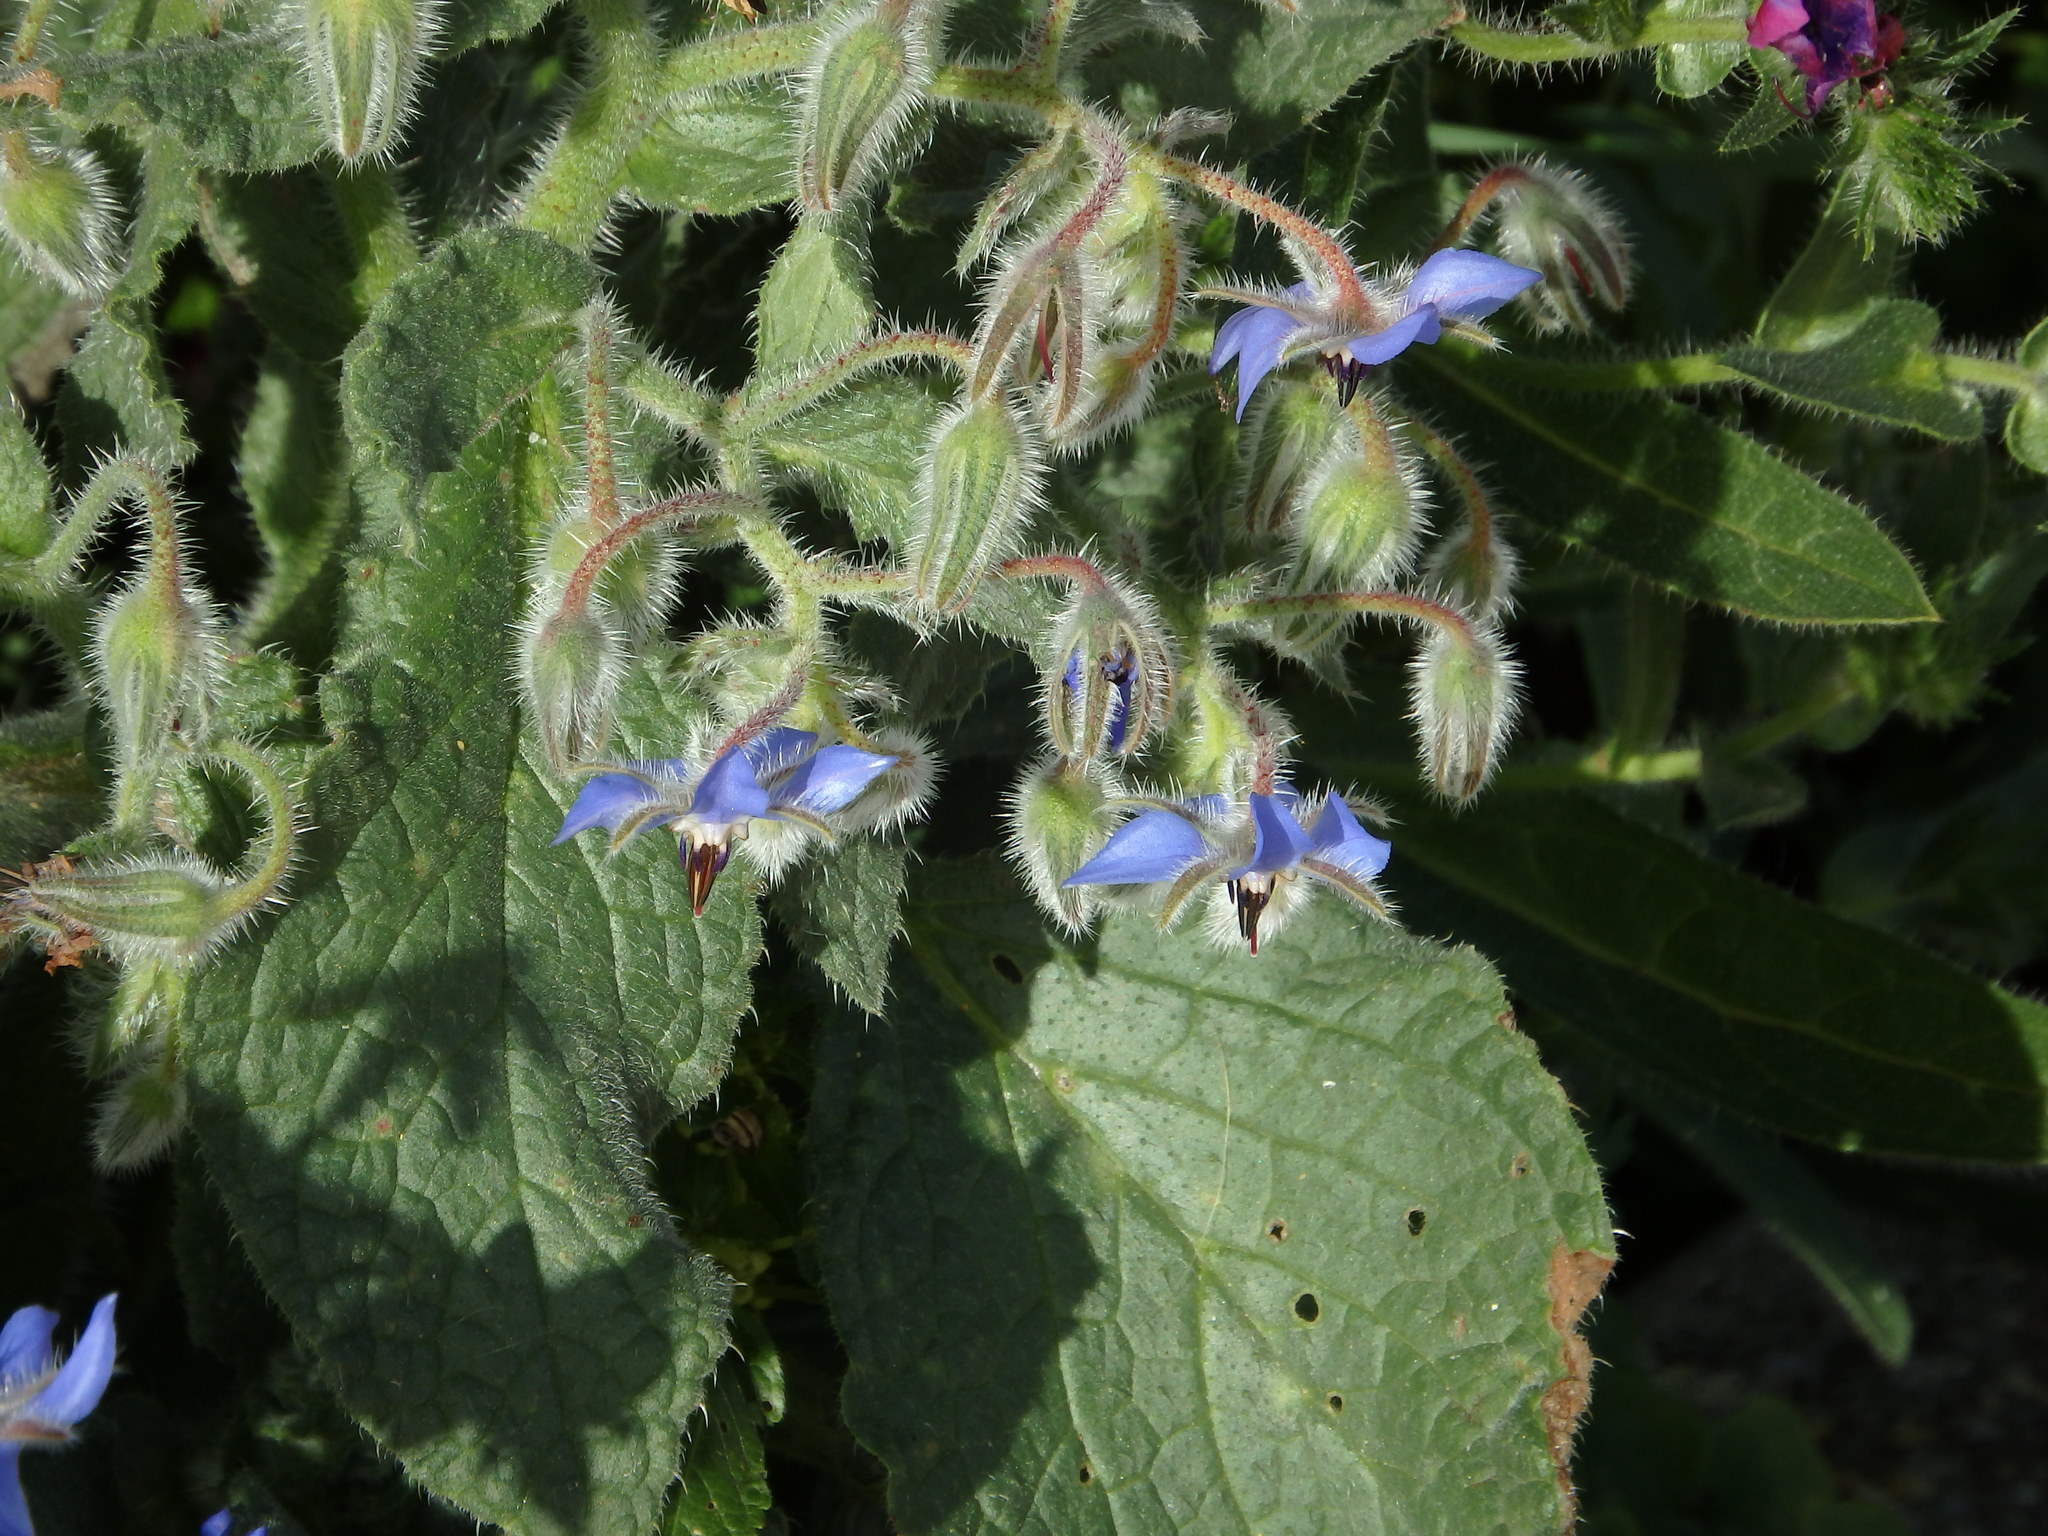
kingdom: Plantae
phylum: Tracheophyta
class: Magnoliopsida
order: Boraginales
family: Boraginaceae
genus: Borago
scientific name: Borago officinalis
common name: Borage
